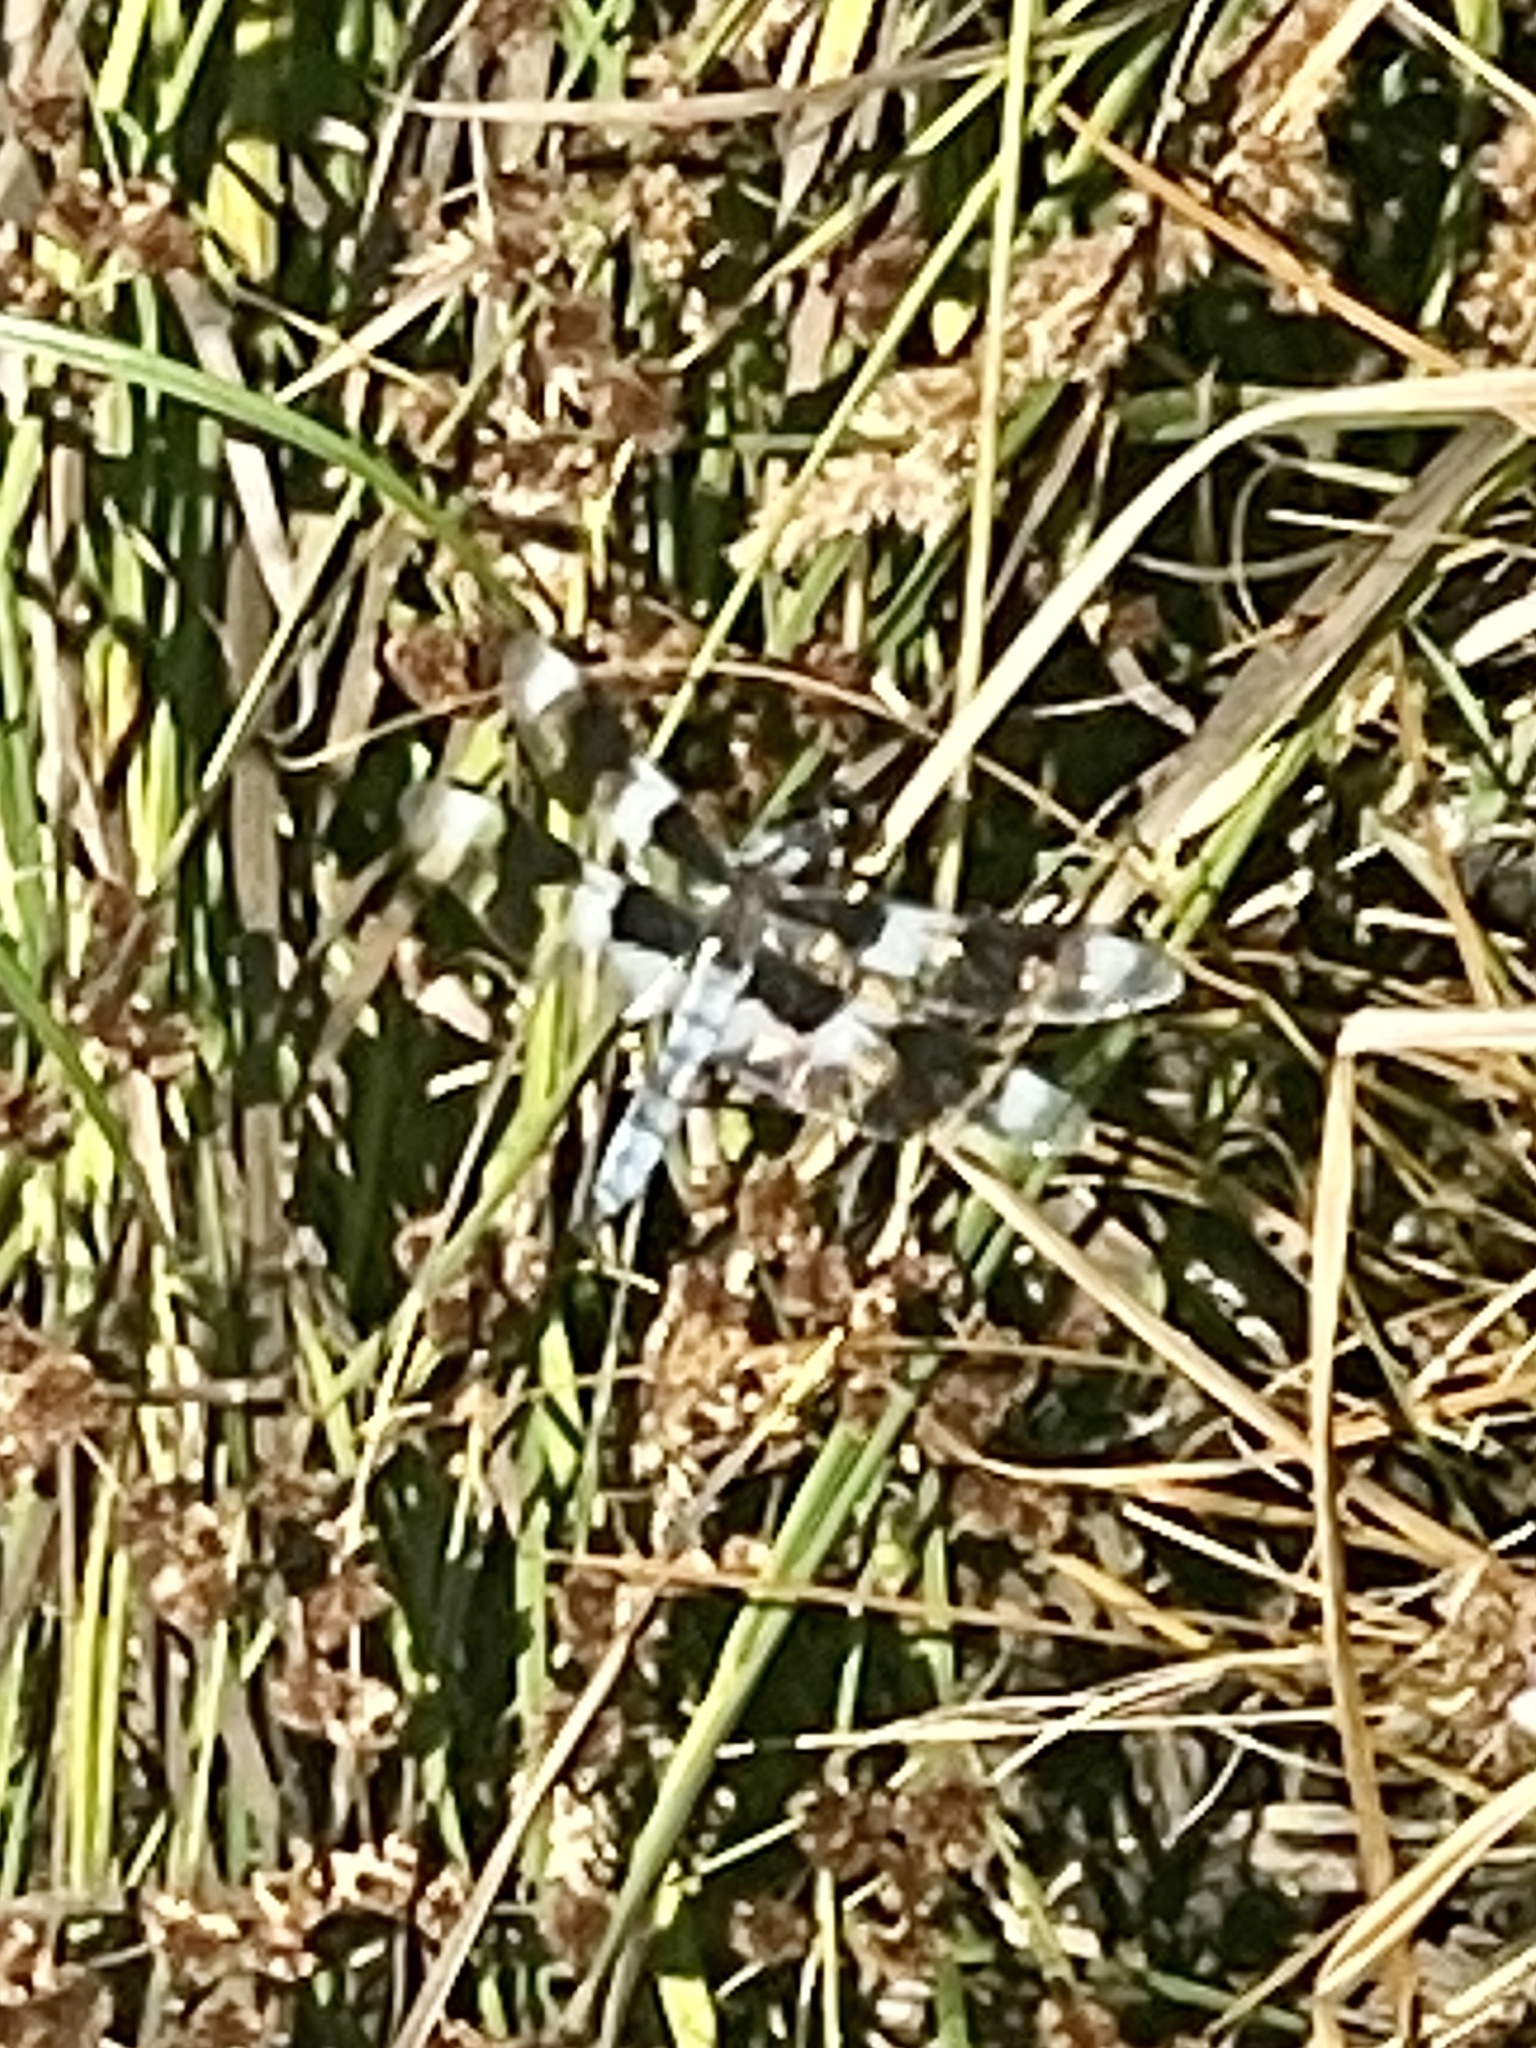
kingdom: Animalia
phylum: Arthropoda
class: Insecta
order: Odonata
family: Libellulidae
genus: Libellula
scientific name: Libellula forensis
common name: Eight-spotted skimmer
